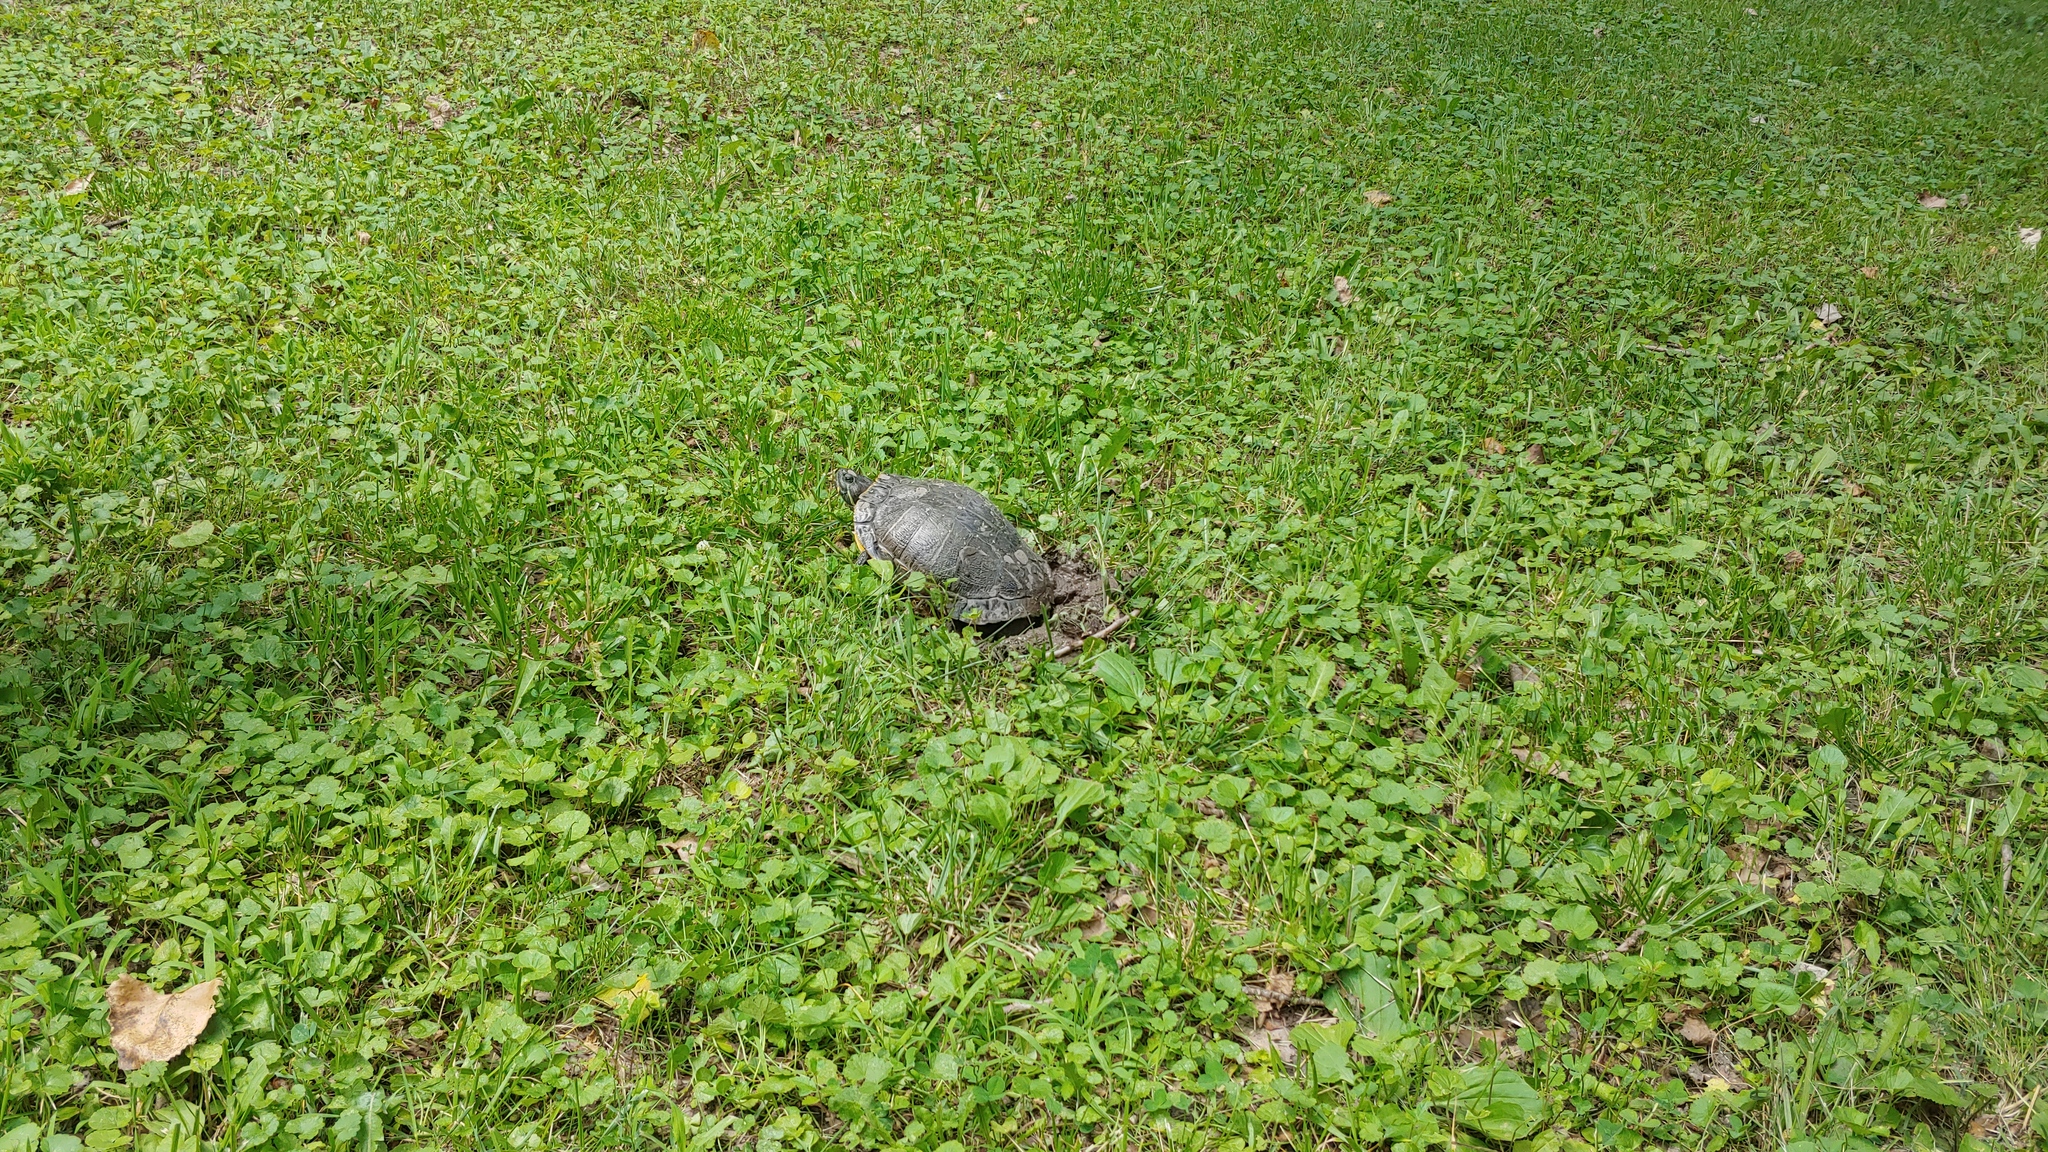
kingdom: Animalia
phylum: Chordata
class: Testudines
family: Emydidae
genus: Trachemys
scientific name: Trachemys scripta
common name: Slider
